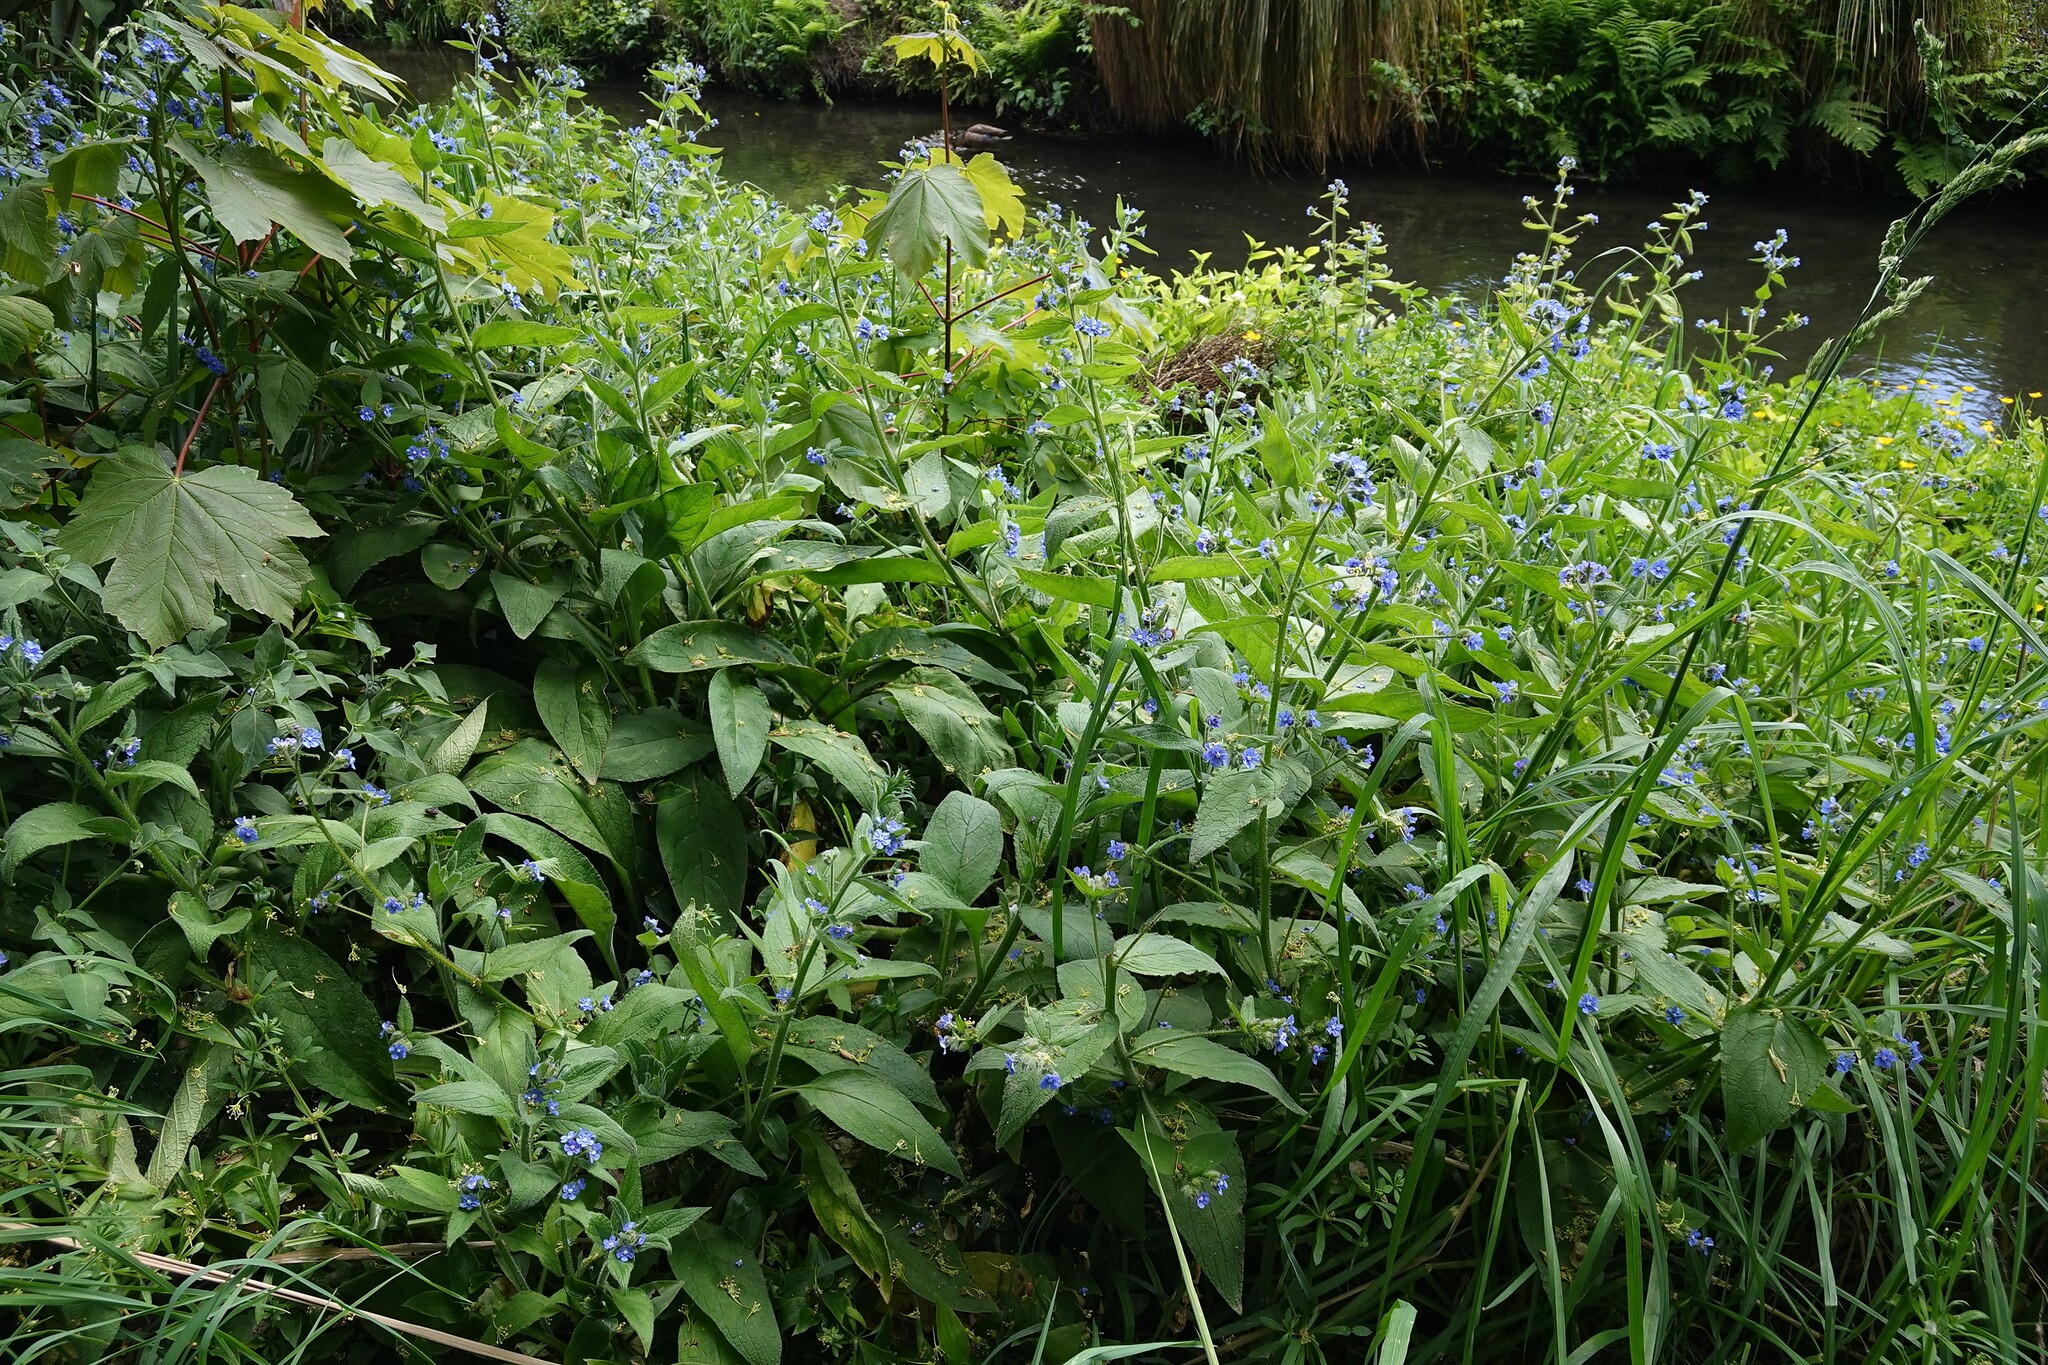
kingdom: Plantae
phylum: Tracheophyta
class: Magnoliopsida
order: Boraginales
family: Boraginaceae
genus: Pentaglottis
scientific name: Pentaglottis sempervirens
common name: Green alkanet
